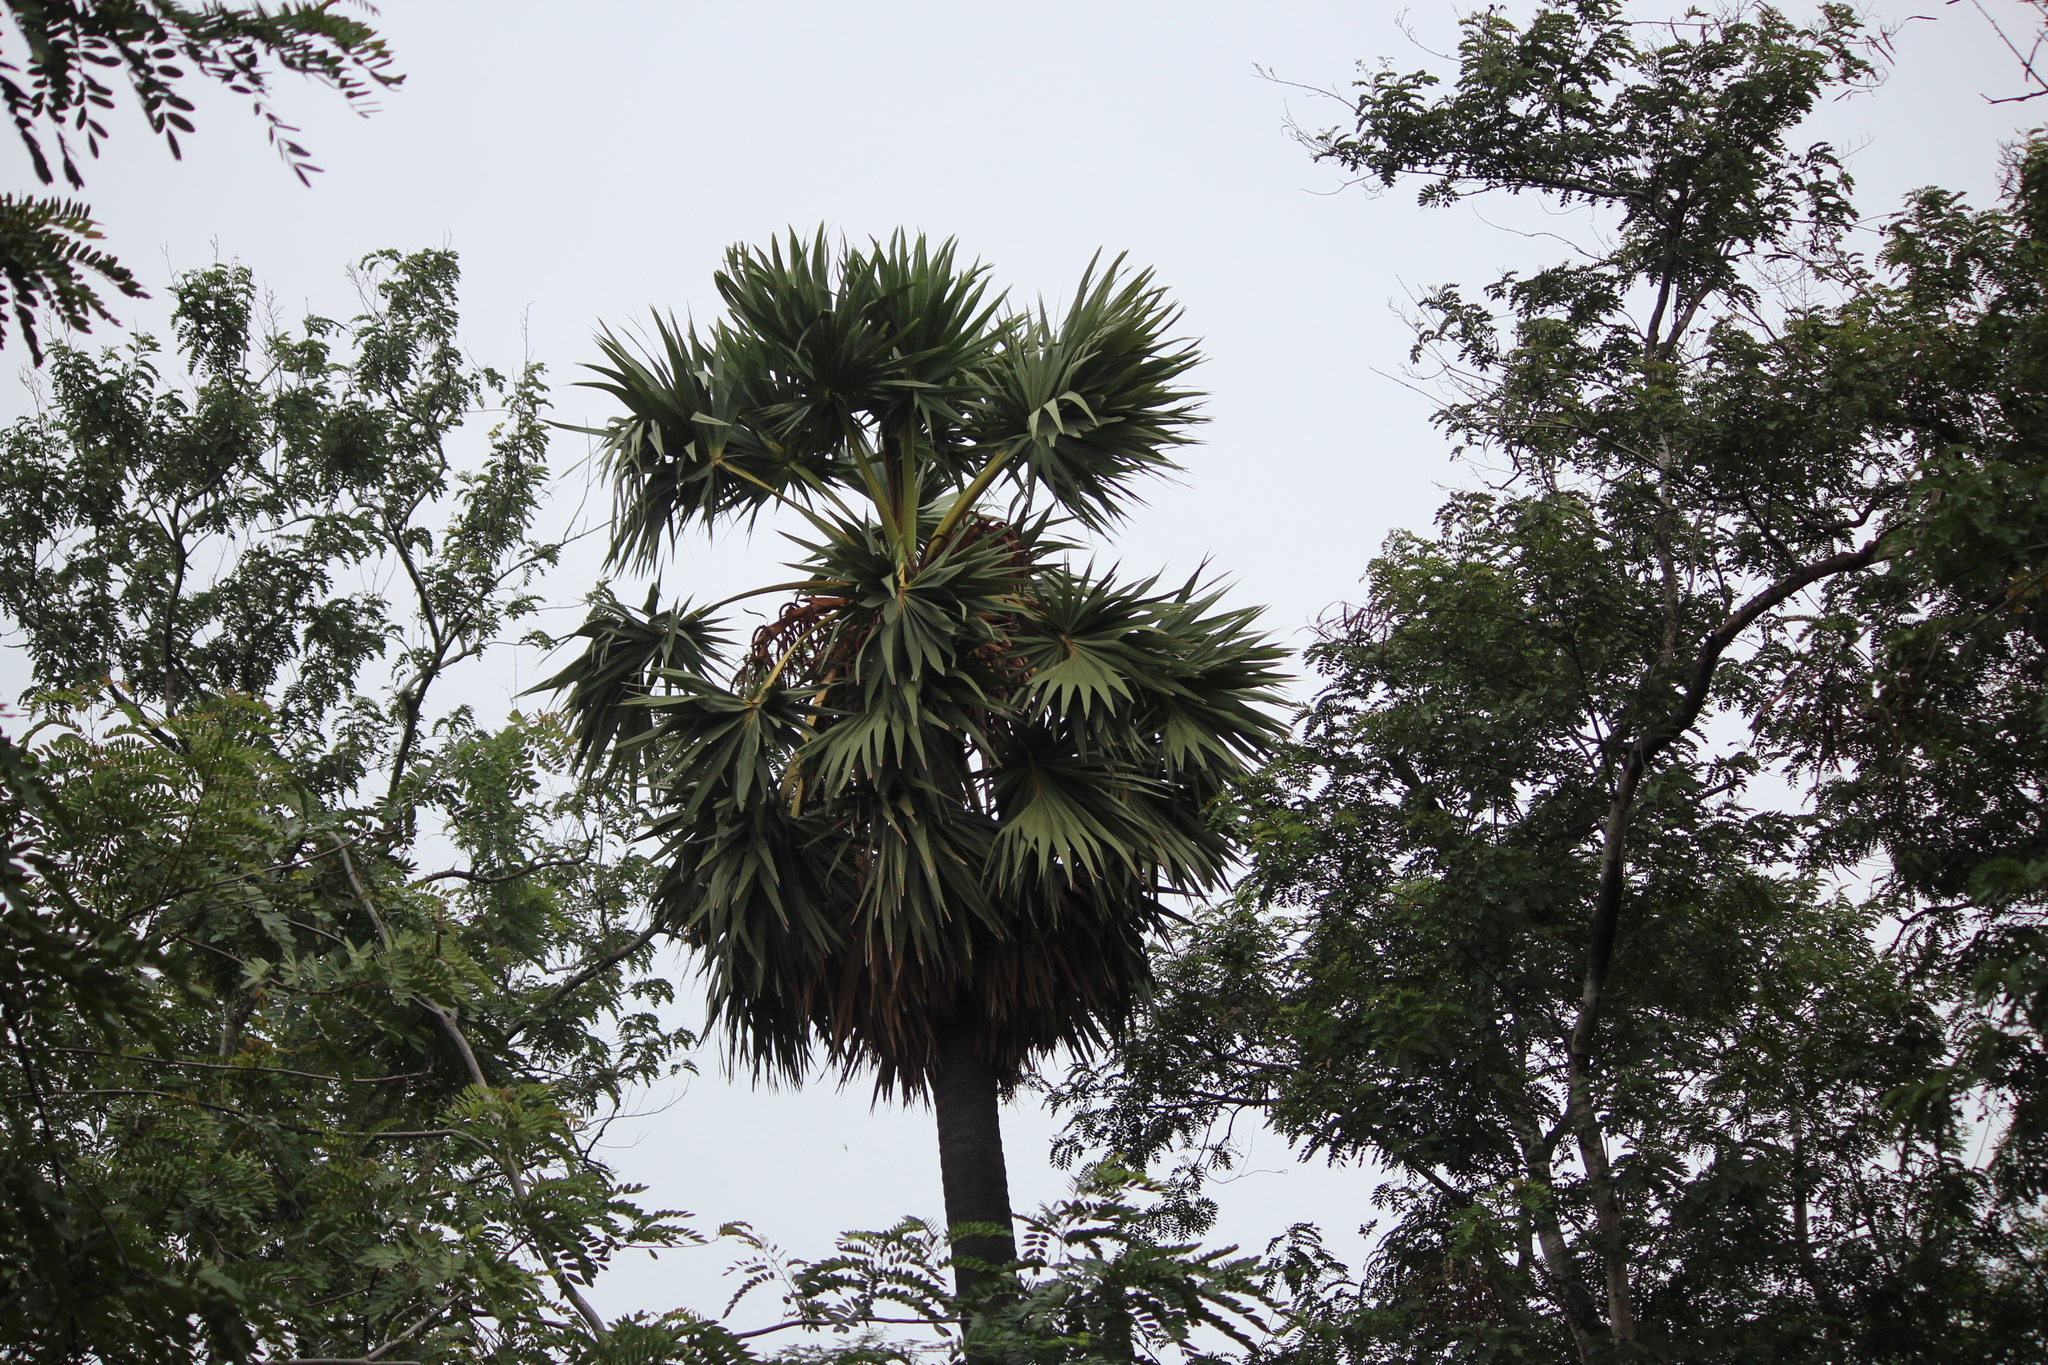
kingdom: Plantae
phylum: Tracheophyta
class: Liliopsida
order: Arecales
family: Arecaceae
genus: Borassus
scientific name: Borassus flabellifer
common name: Palmyra palm
